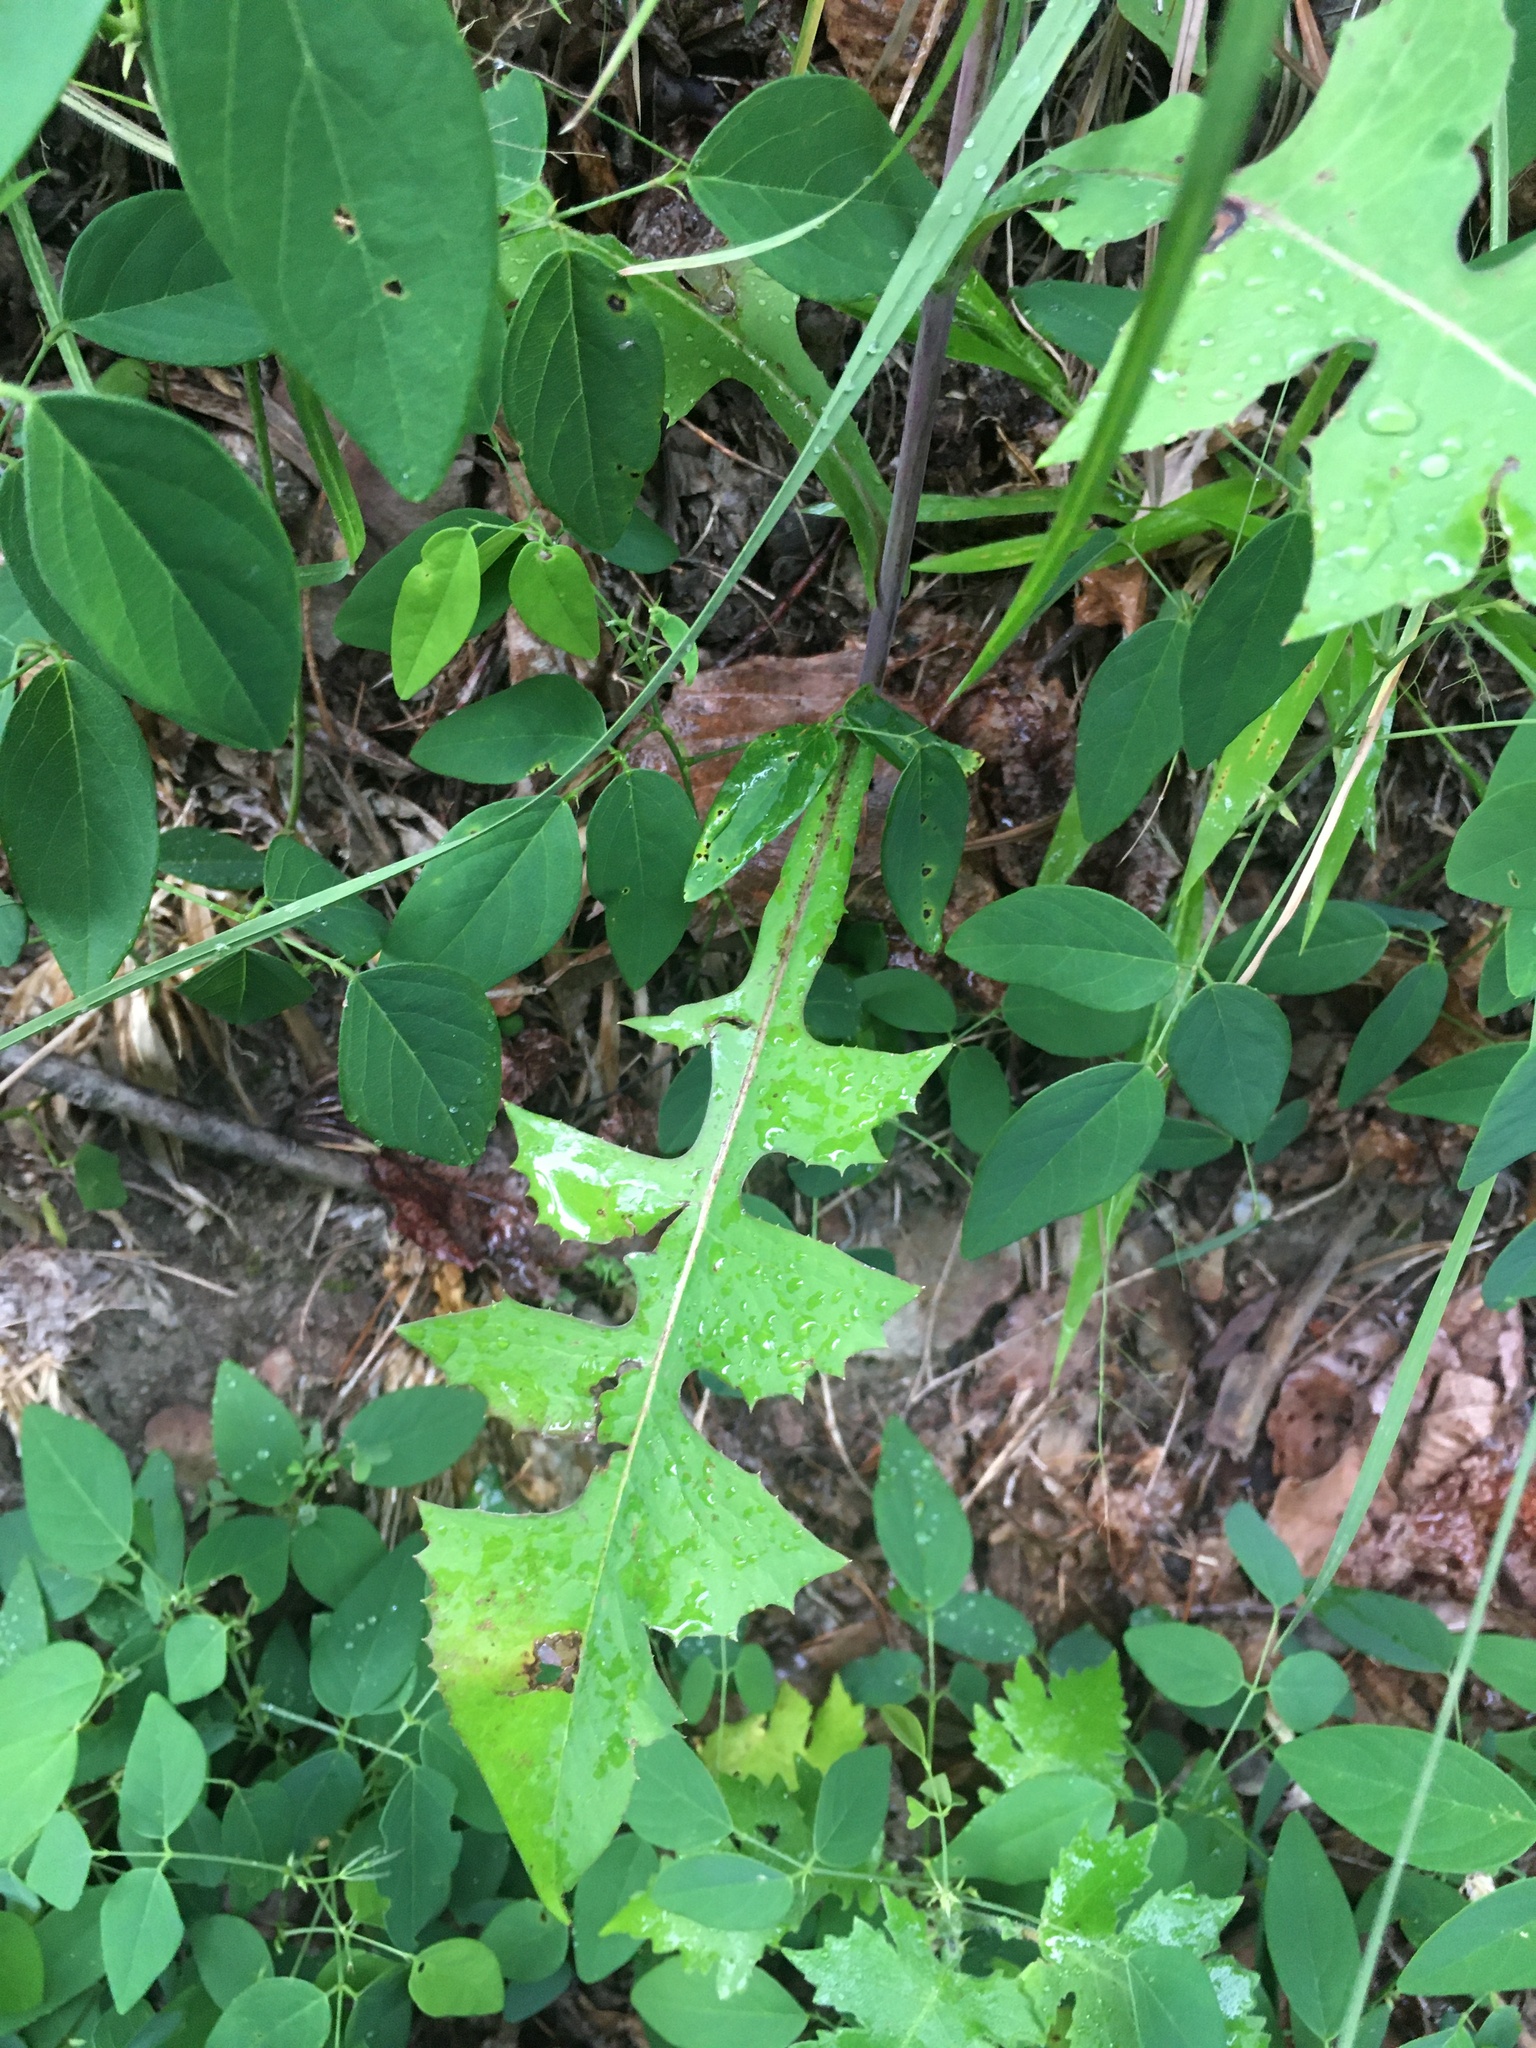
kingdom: Plantae
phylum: Tracheophyta
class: Magnoliopsida
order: Asterales
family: Asteraceae
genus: Lactuca
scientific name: Lactuca canadensis
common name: Canada lettuce
